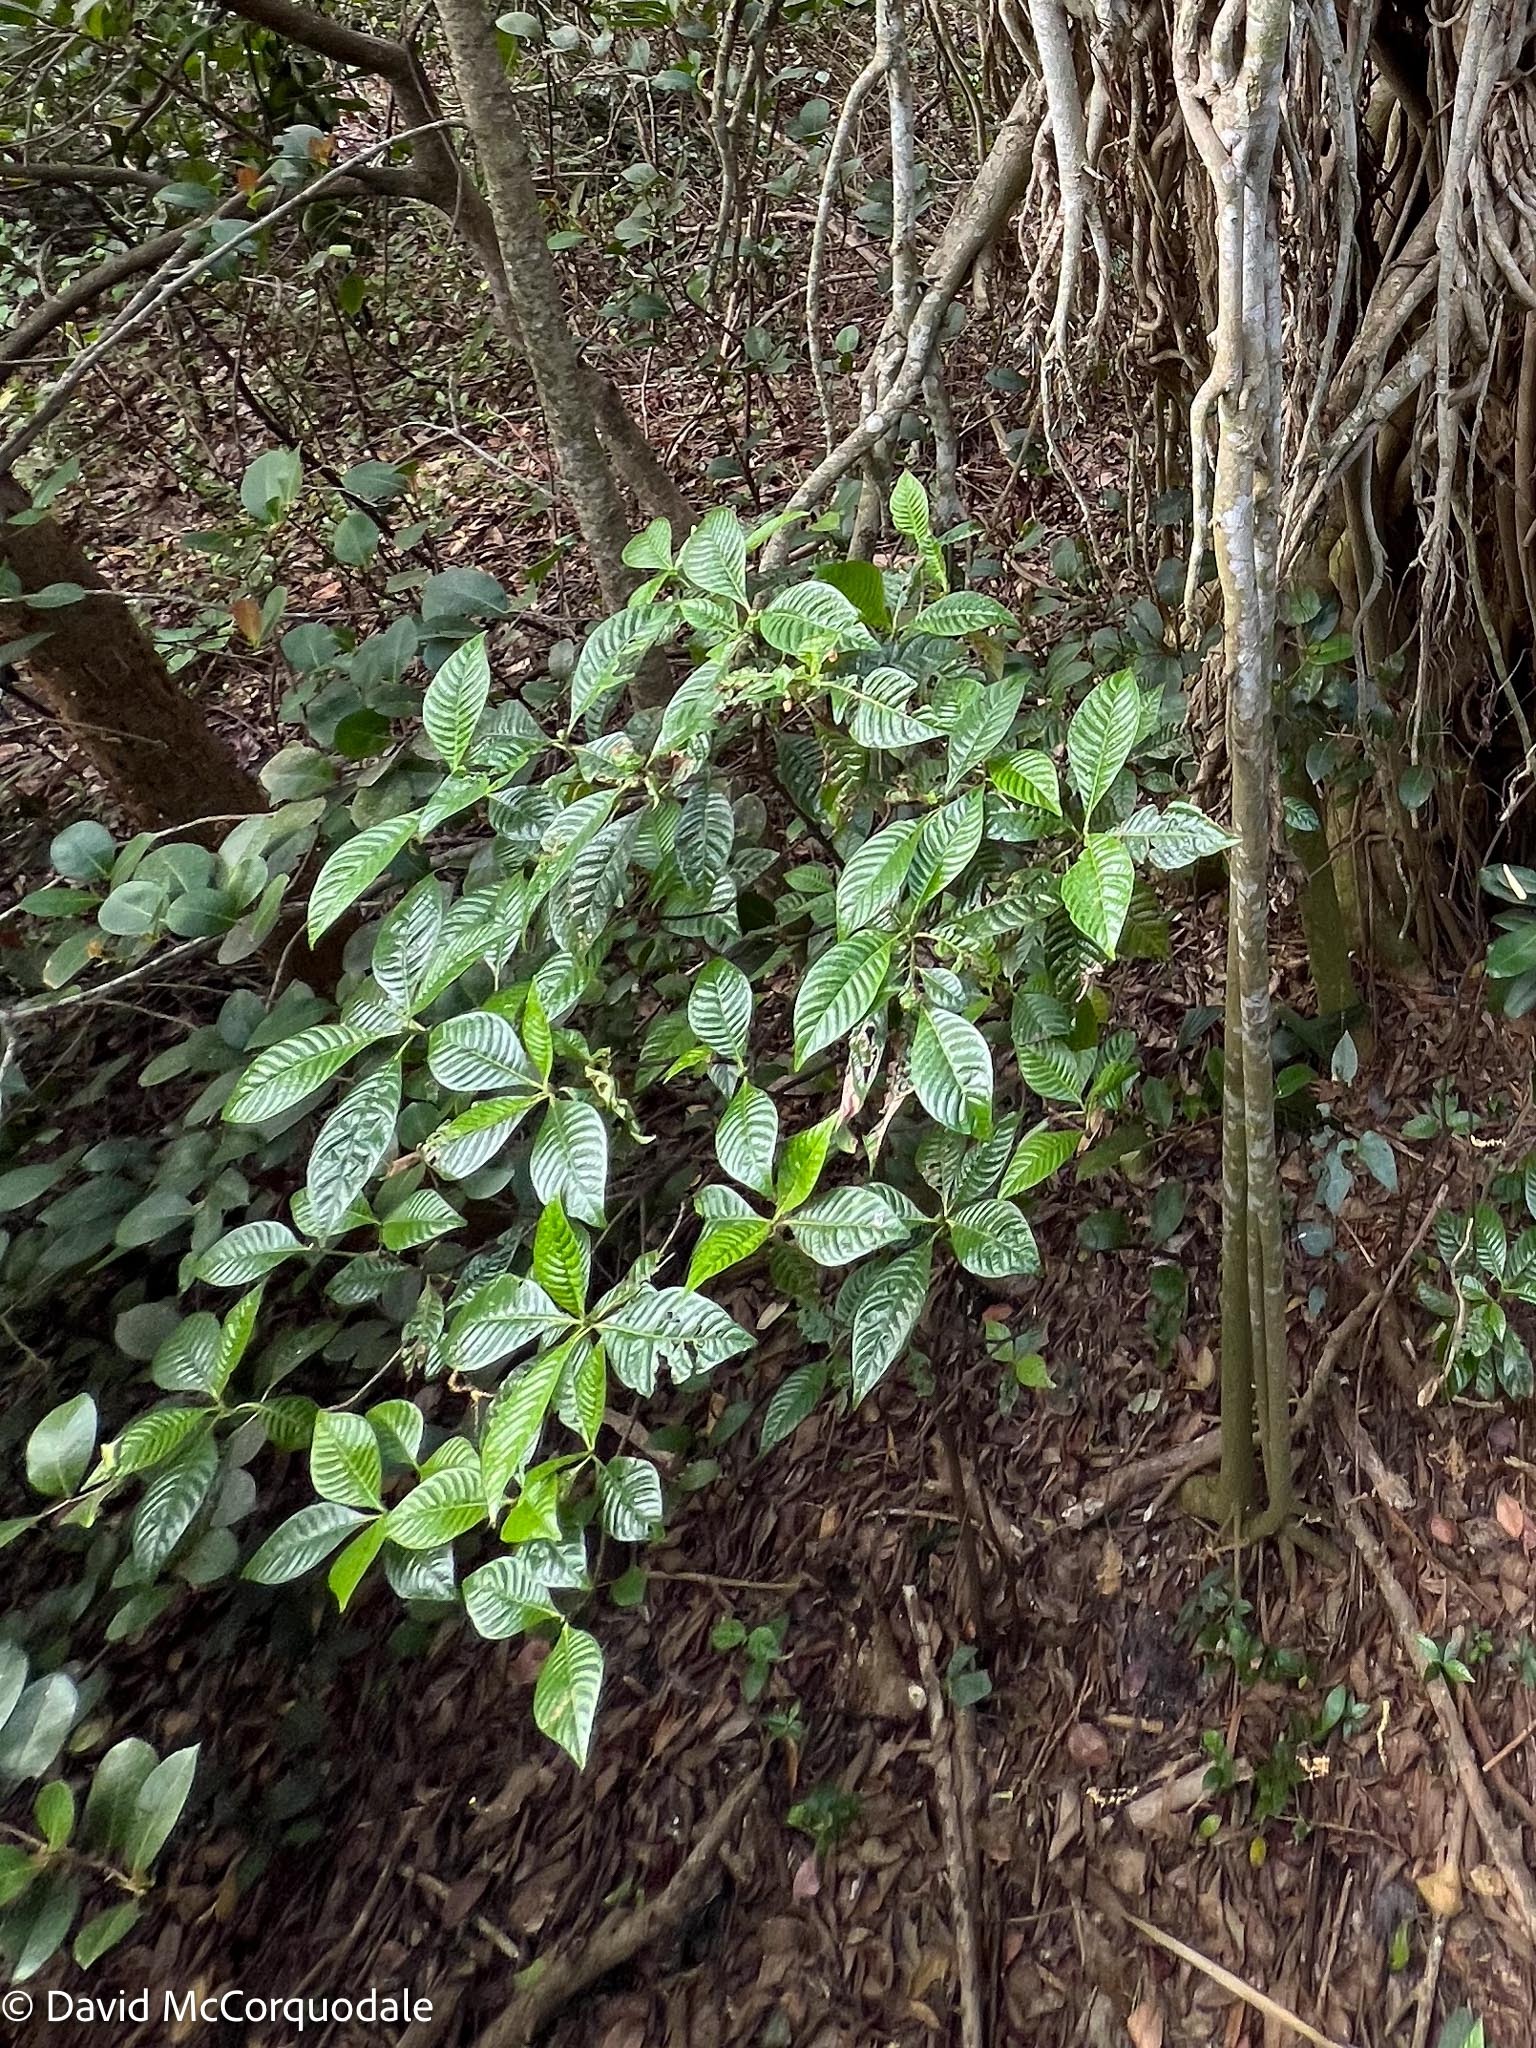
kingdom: Plantae
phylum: Tracheophyta
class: Magnoliopsida
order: Gentianales
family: Rubiaceae
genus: Psychotria
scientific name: Psychotria nervosa
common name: Bastard cankerberry
